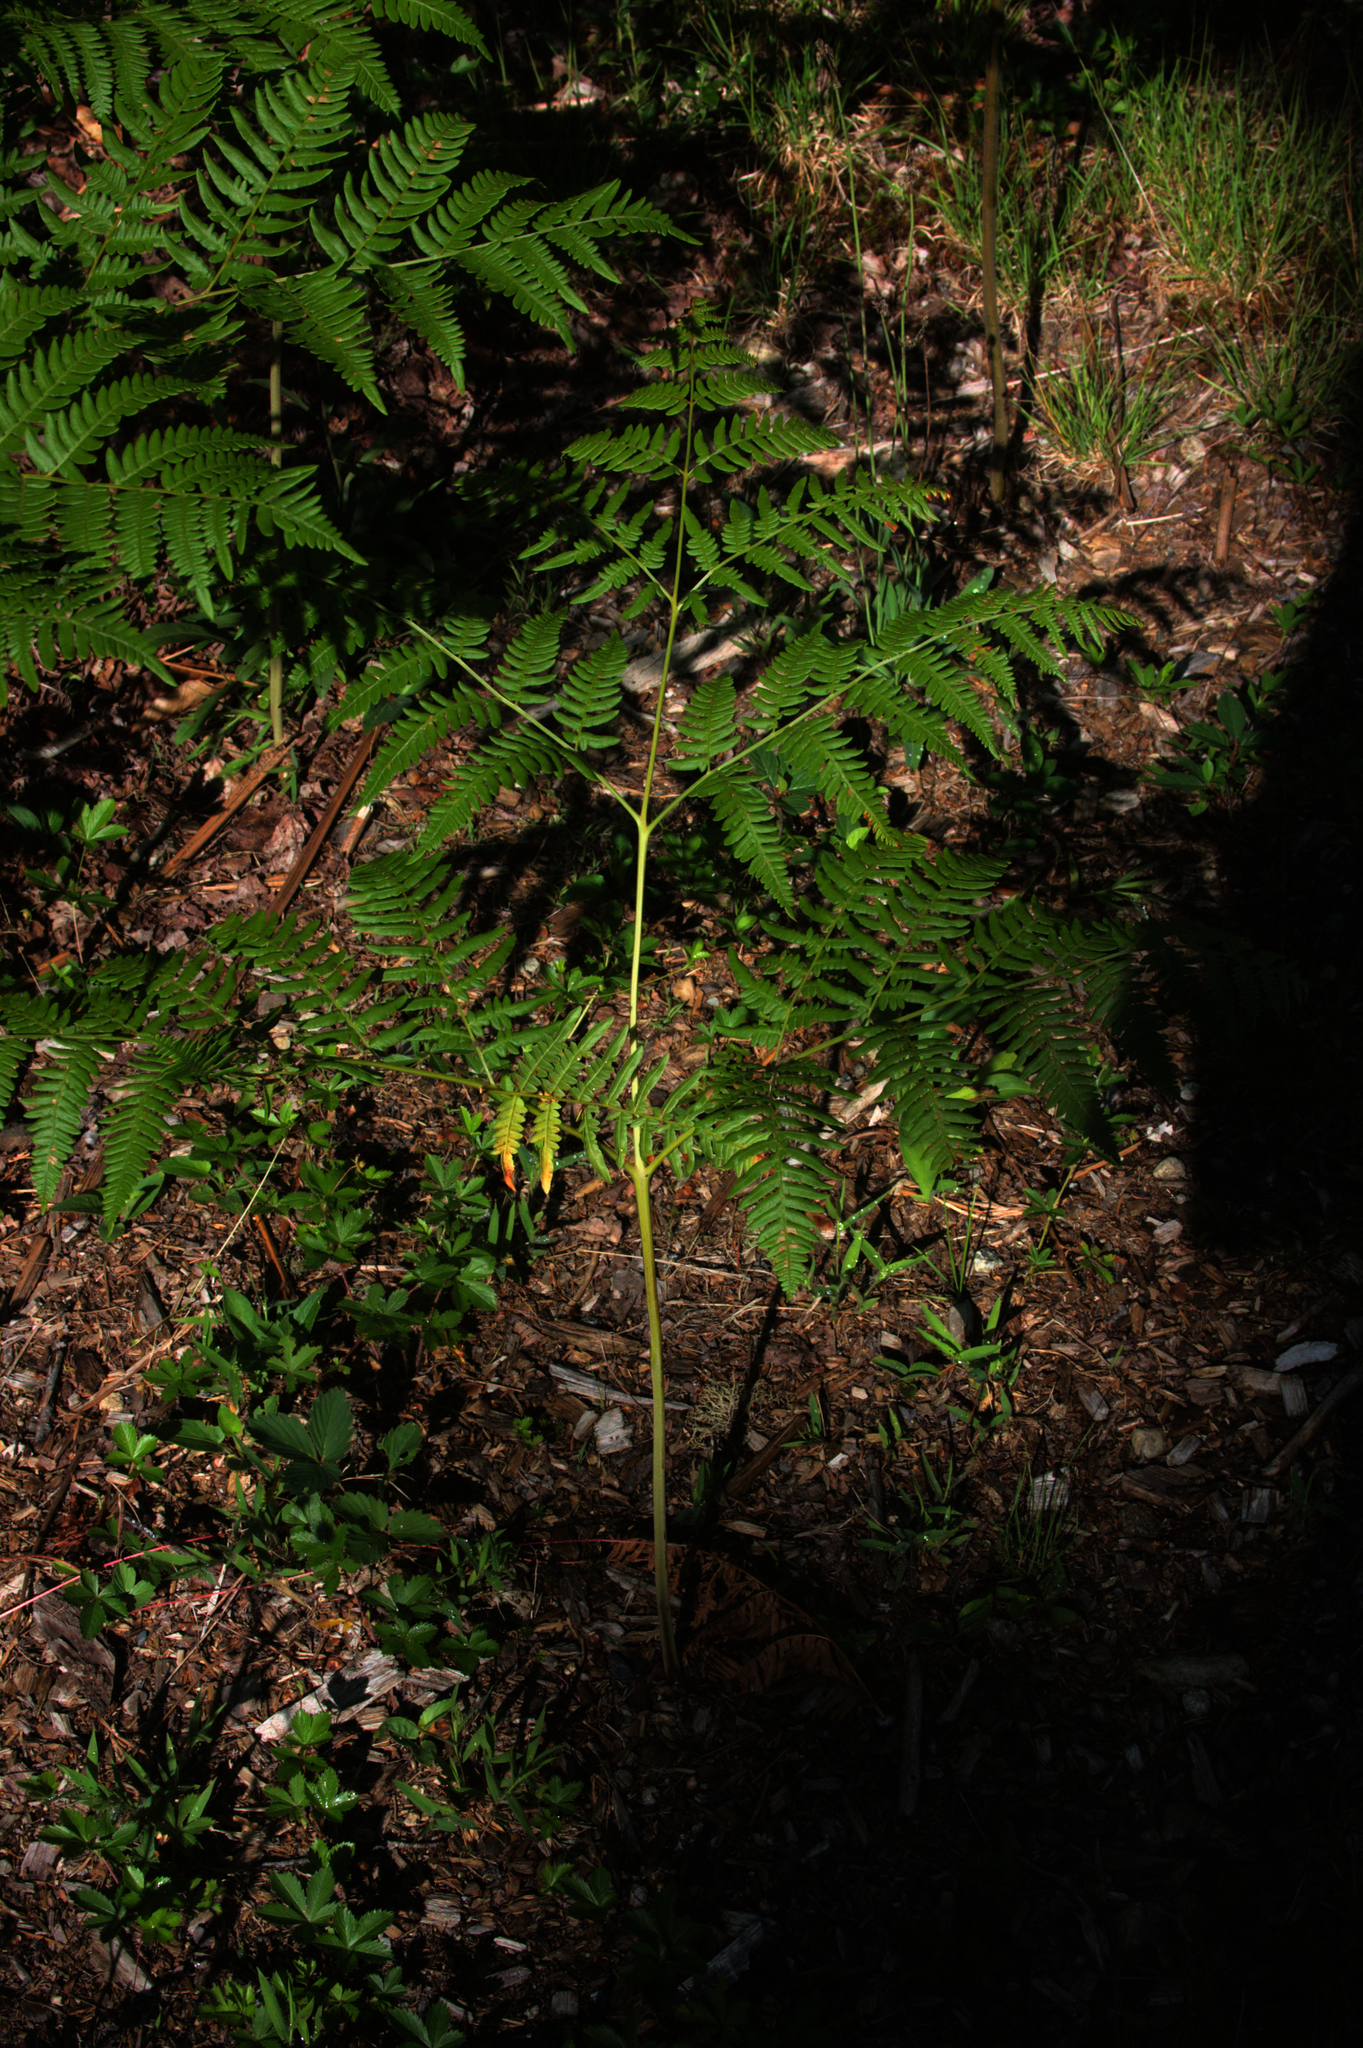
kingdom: Plantae
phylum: Tracheophyta
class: Polypodiopsida
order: Polypodiales
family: Dennstaedtiaceae
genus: Pteridium
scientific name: Pteridium aquilinum
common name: Bracken
